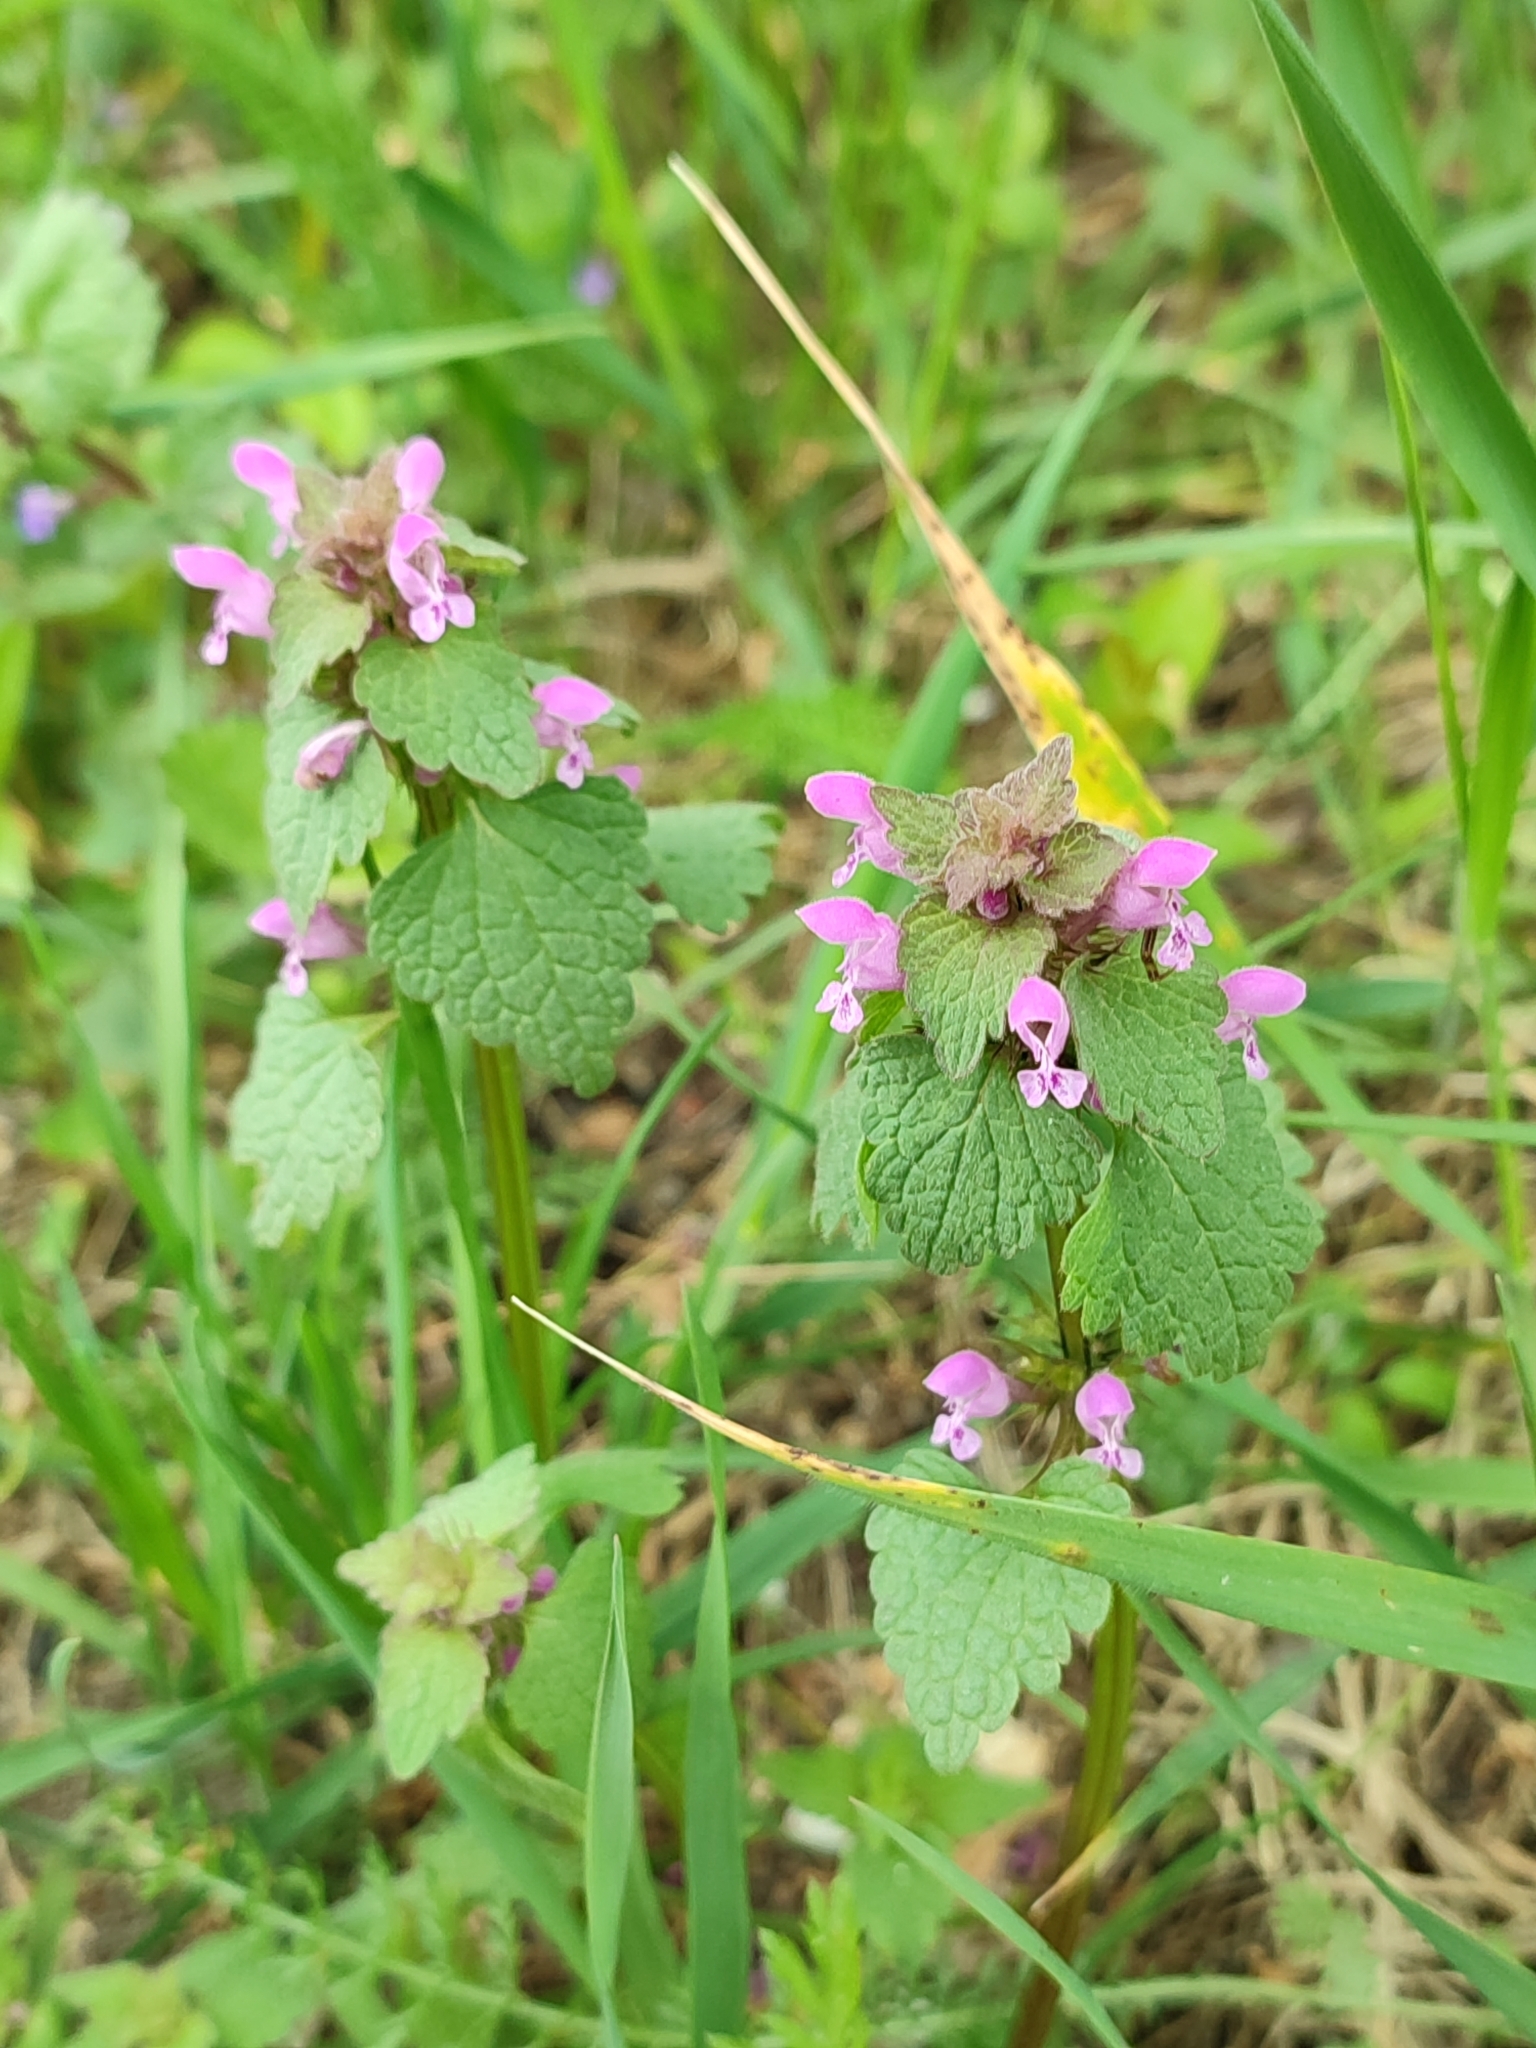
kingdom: Plantae
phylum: Tracheophyta
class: Magnoliopsida
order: Lamiales
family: Lamiaceae
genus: Lamium
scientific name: Lamium purpureum
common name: Red dead-nettle
